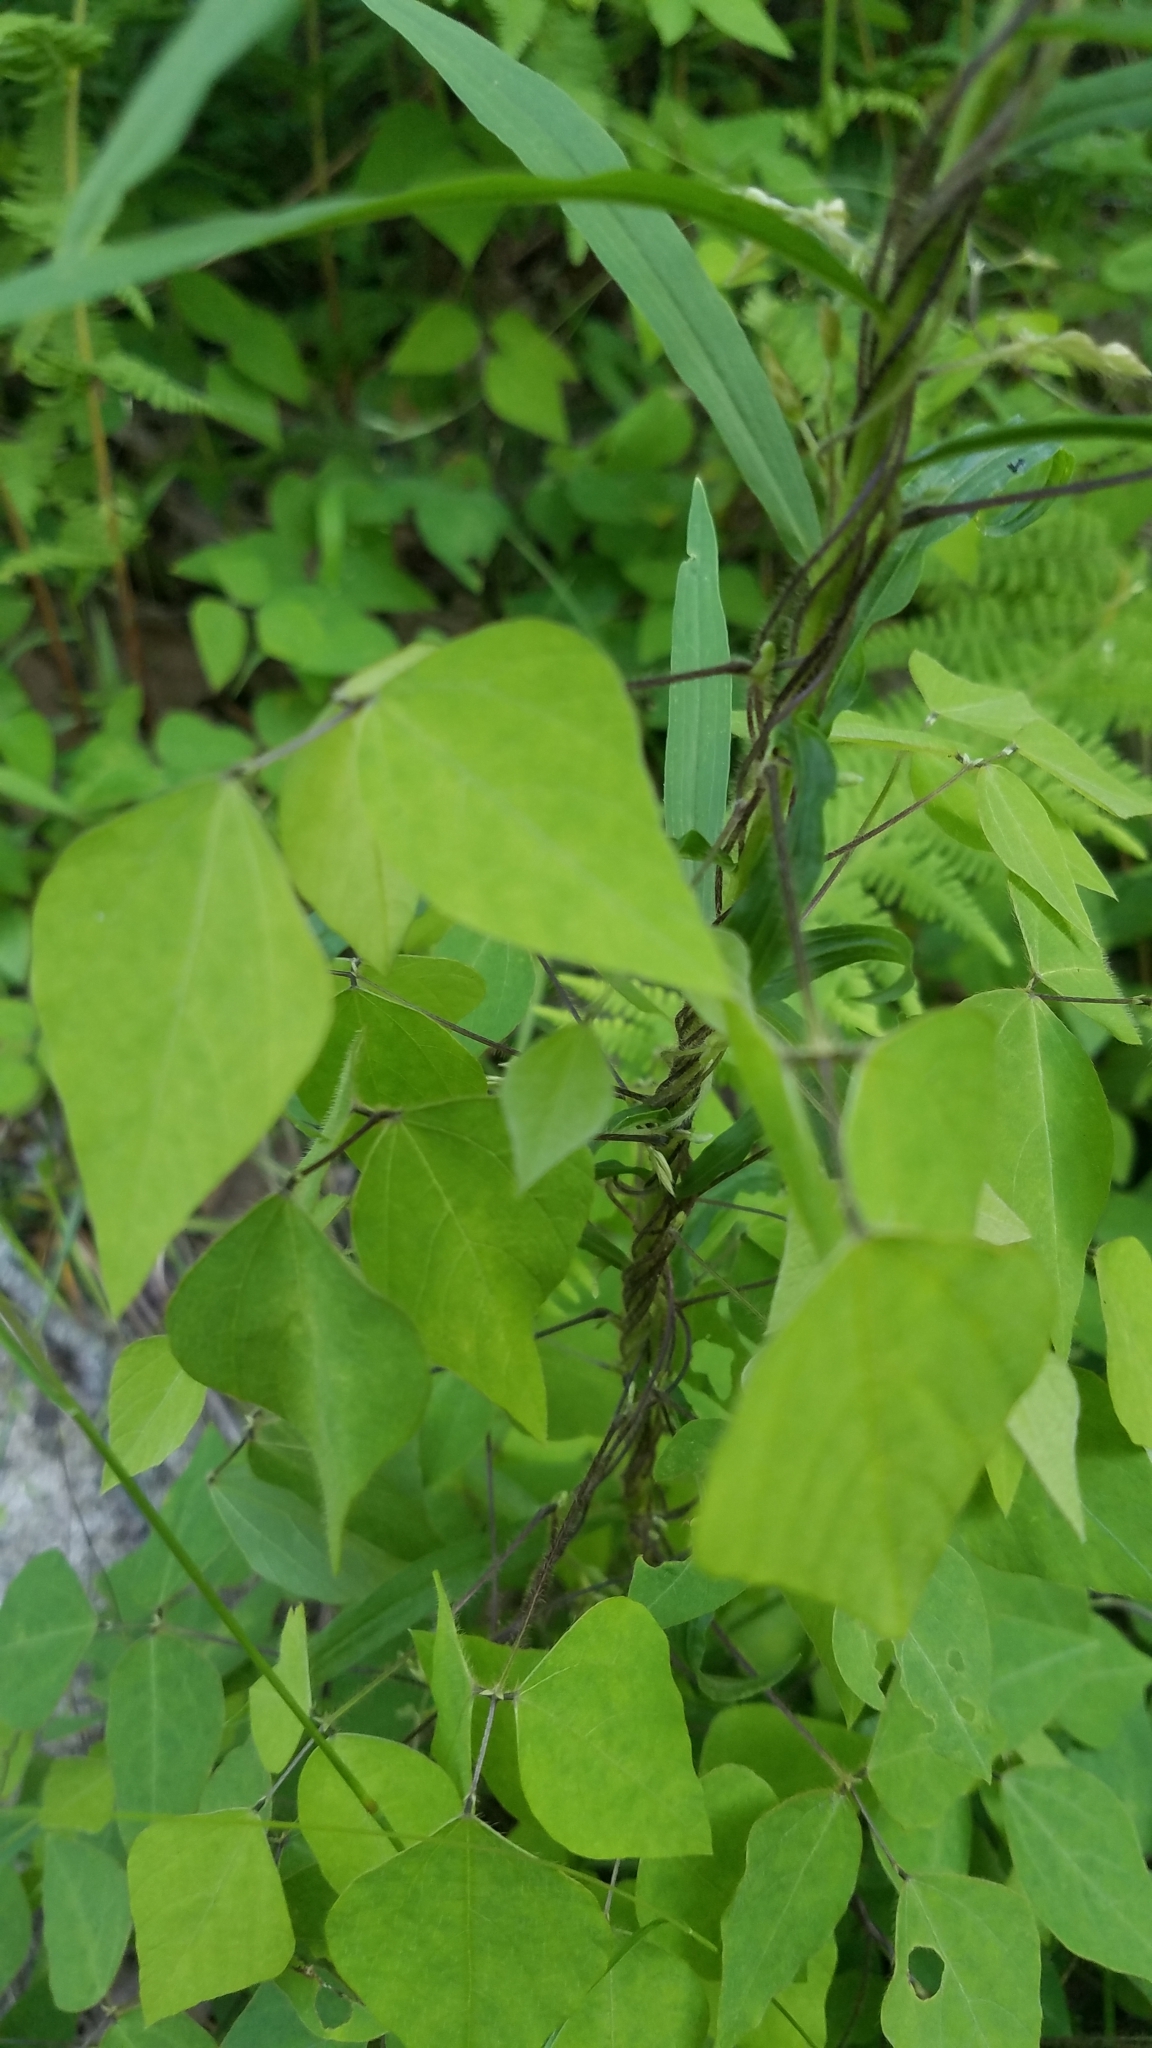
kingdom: Plantae
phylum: Tracheophyta
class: Magnoliopsida
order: Fabales
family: Fabaceae
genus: Amphicarpaea
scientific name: Amphicarpaea bracteata
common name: American hog peanut
